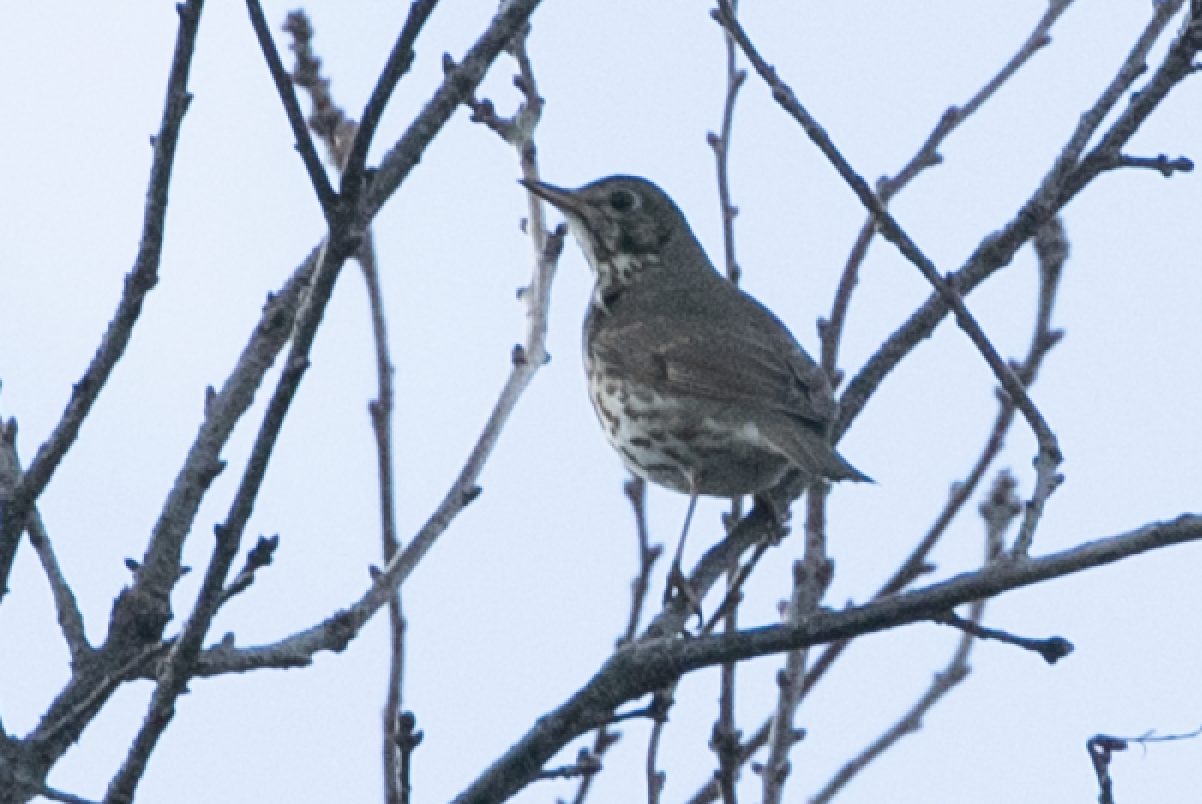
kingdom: Animalia
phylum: Chordata
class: Aves
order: Passeriformes
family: Turdidae
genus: Turdus
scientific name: Turdus philomelos
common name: Song thrush
